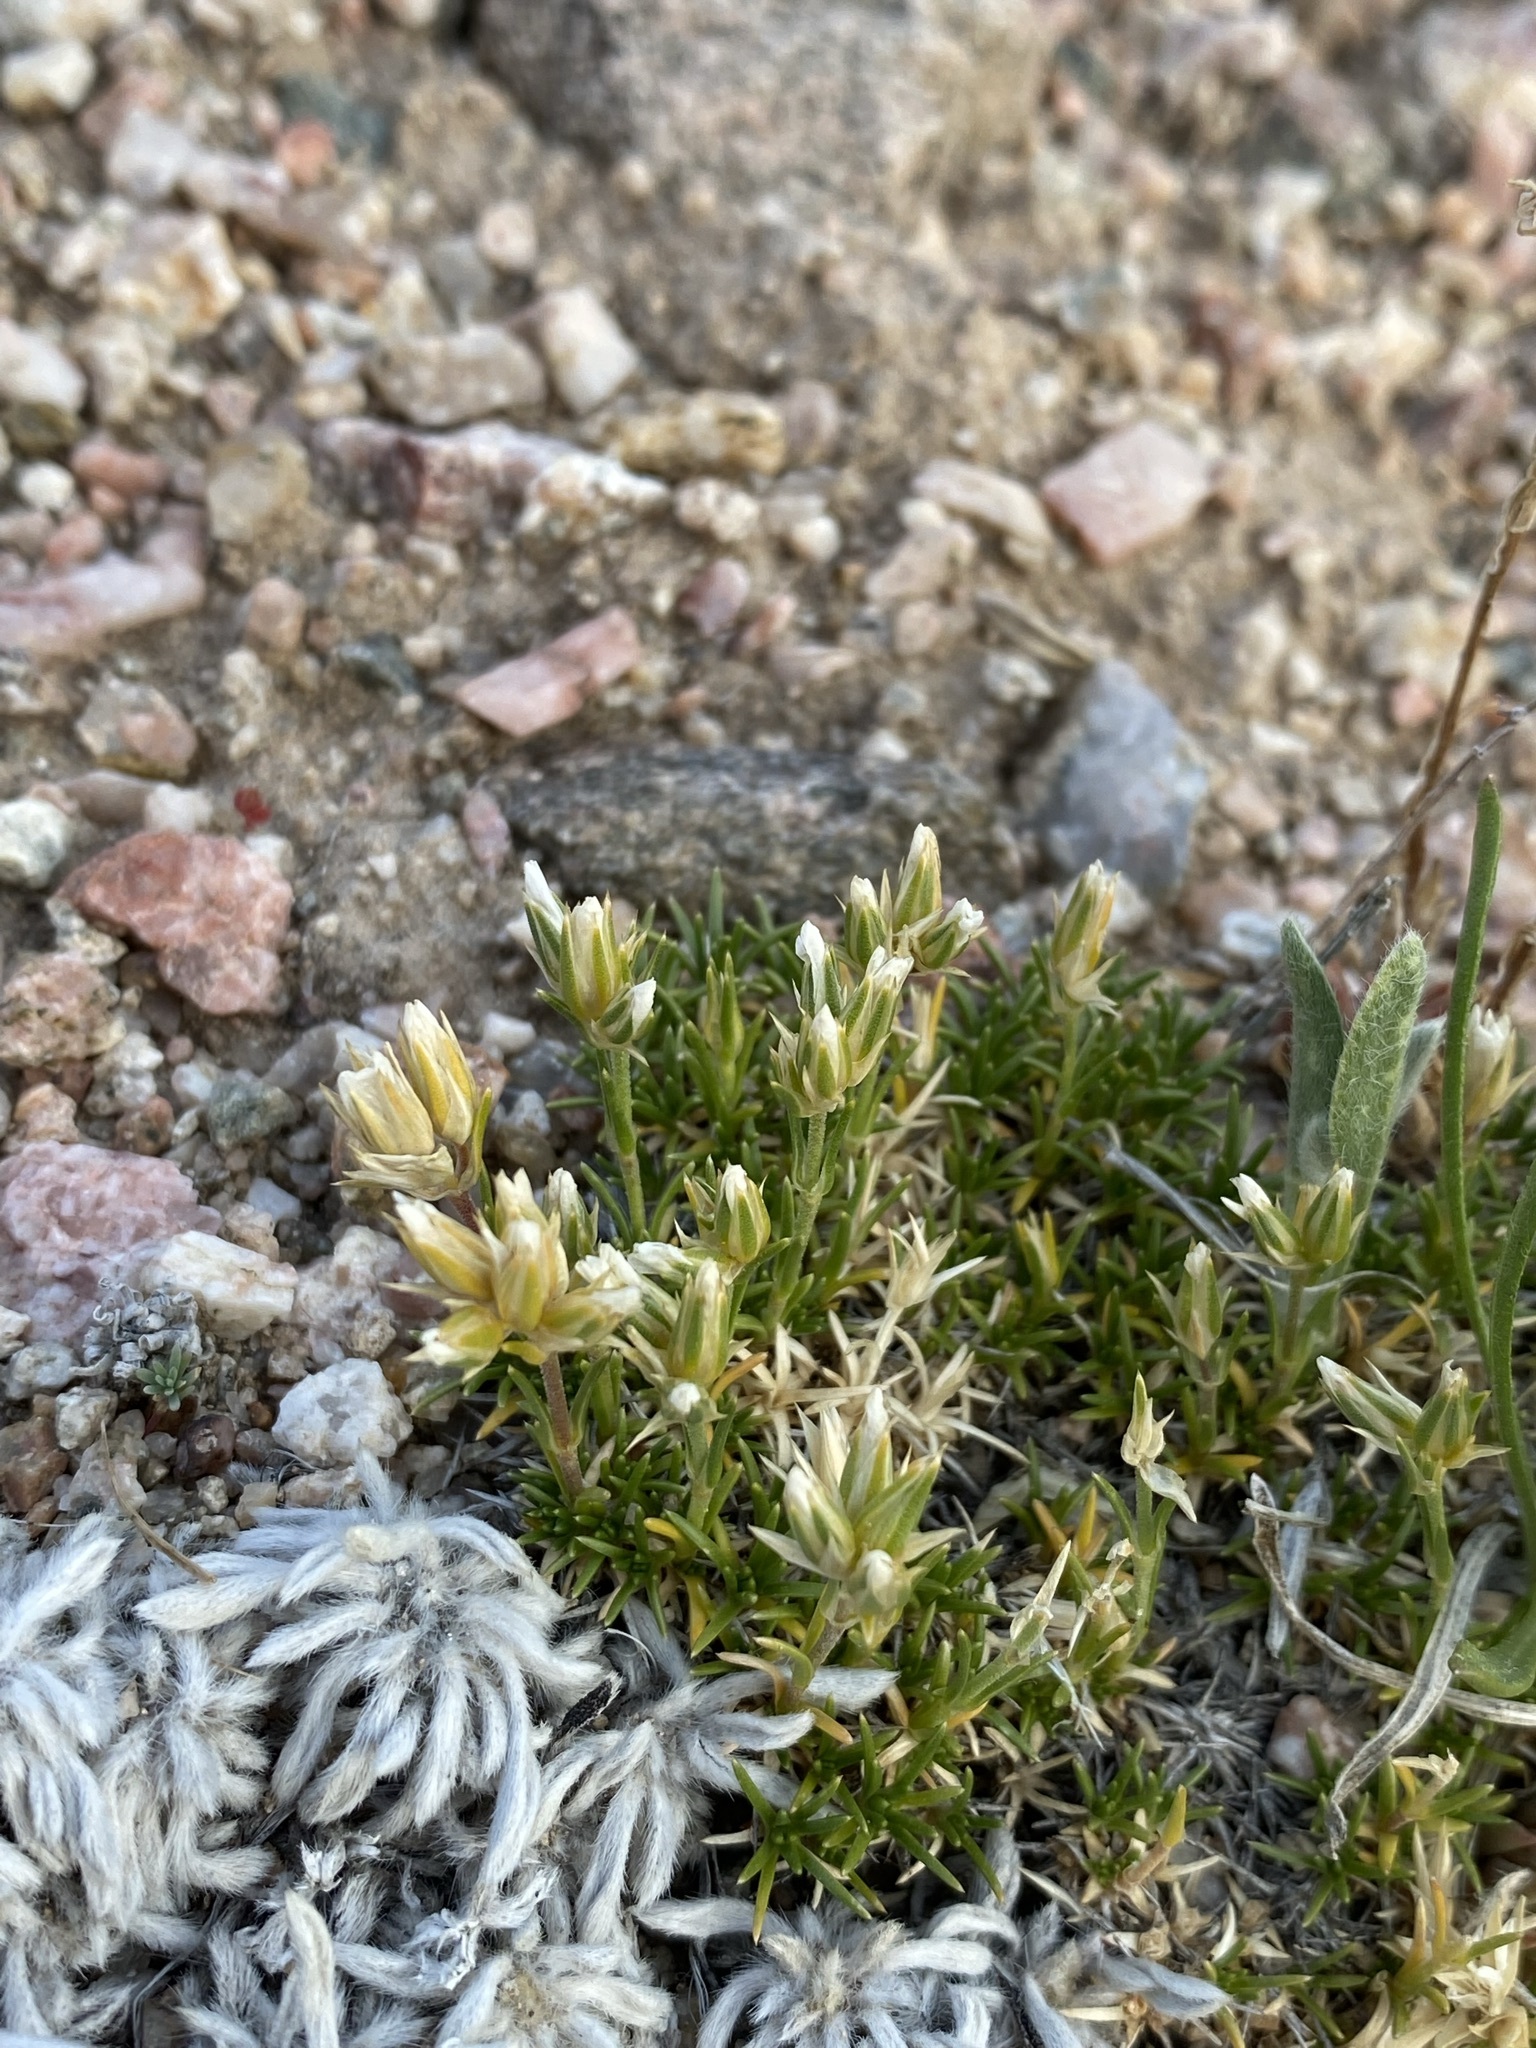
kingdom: Plantae
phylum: Tracheophyta
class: Magnoliopsida
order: Caryophyllales
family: Caryophyllaceae
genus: Eremogone
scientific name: Eremogone hookeri
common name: Hooker's sandwort
